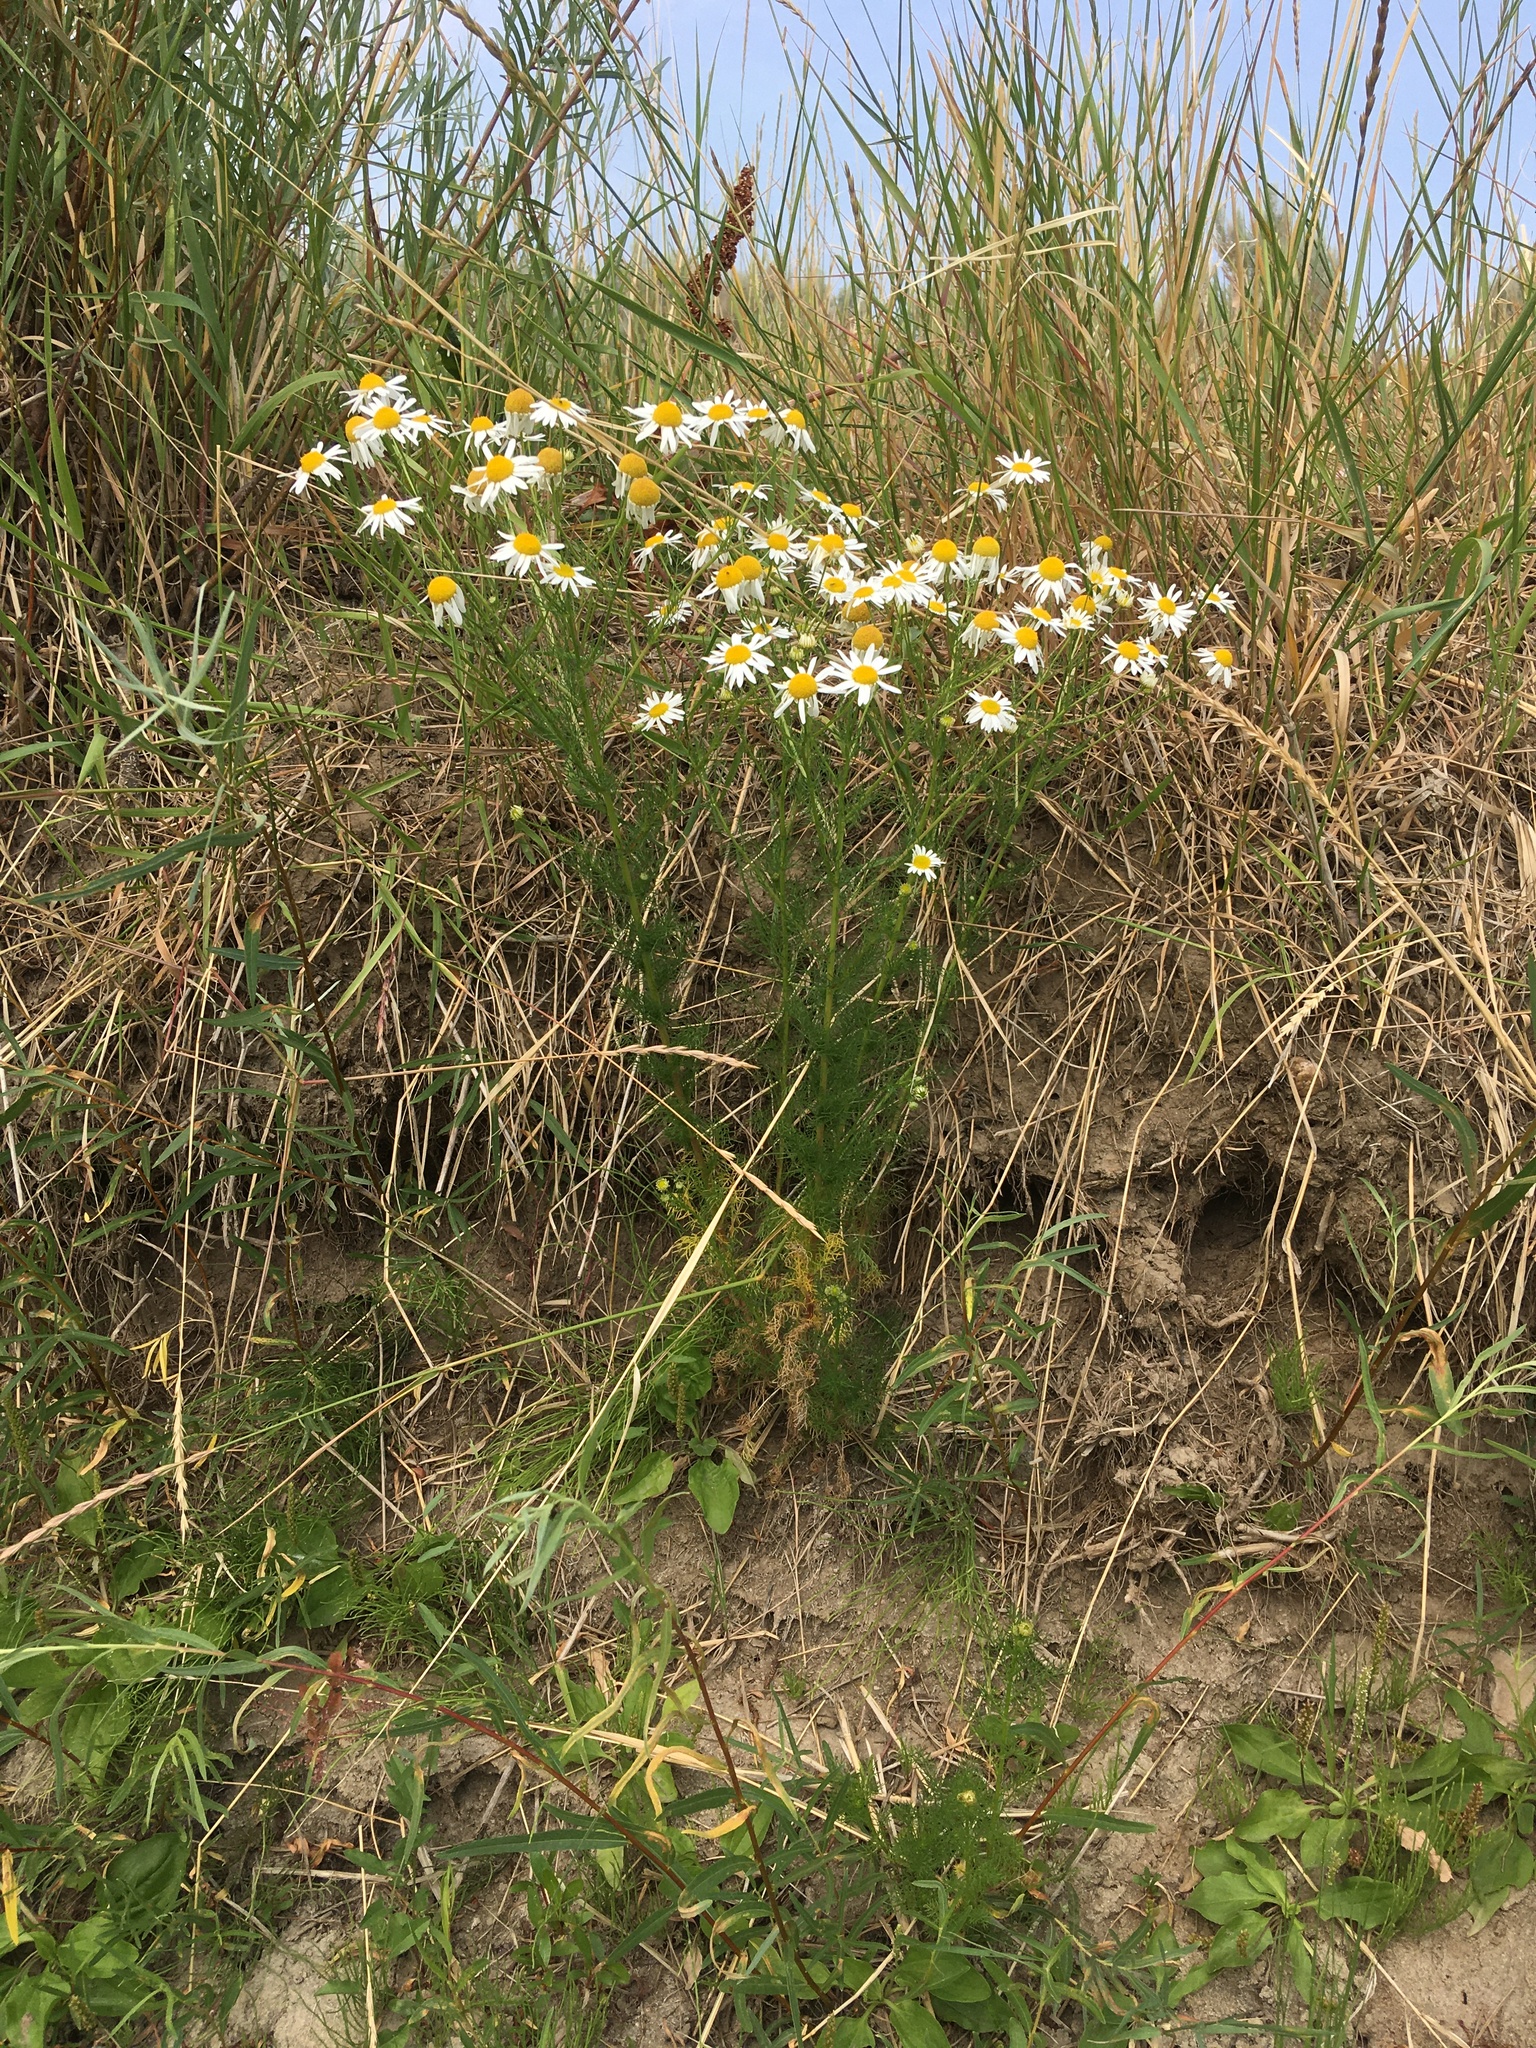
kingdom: Plantae
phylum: Tracheophyta
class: Magnoliopsida
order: Asterales
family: Asteraceae
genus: Tripleurospermum
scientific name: Tripleurospermum inodorum
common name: Scentless mayweed
